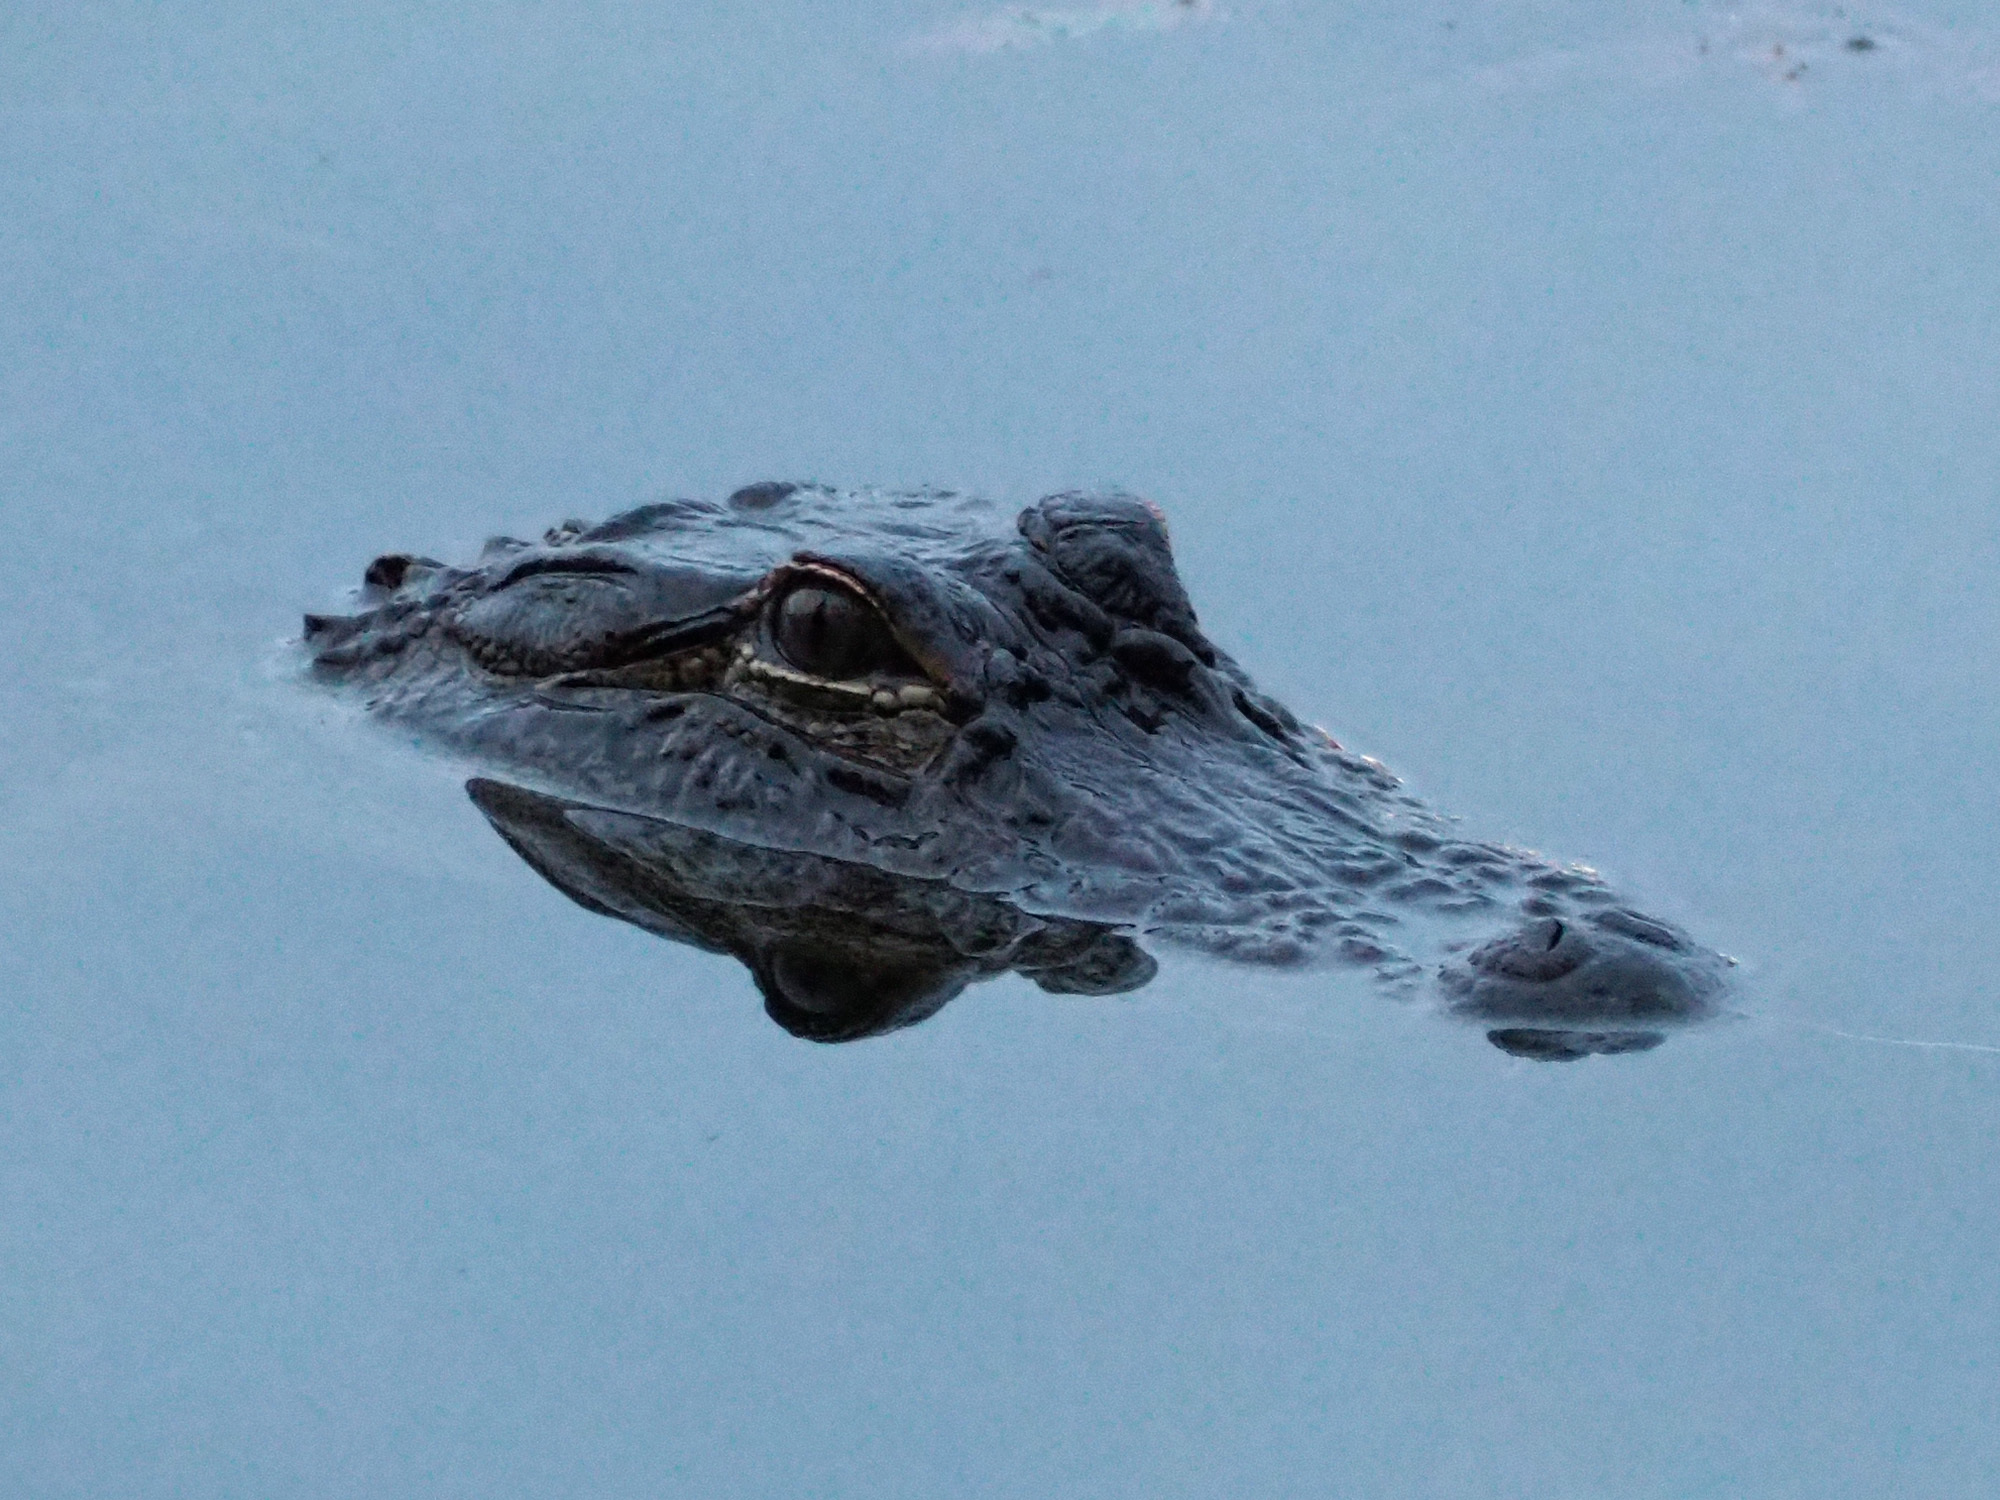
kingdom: Animalia
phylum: Chordata
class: Crocodylia
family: Alligatoridae
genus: Alligator
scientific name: Alligator mississippiensis
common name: American alligator
